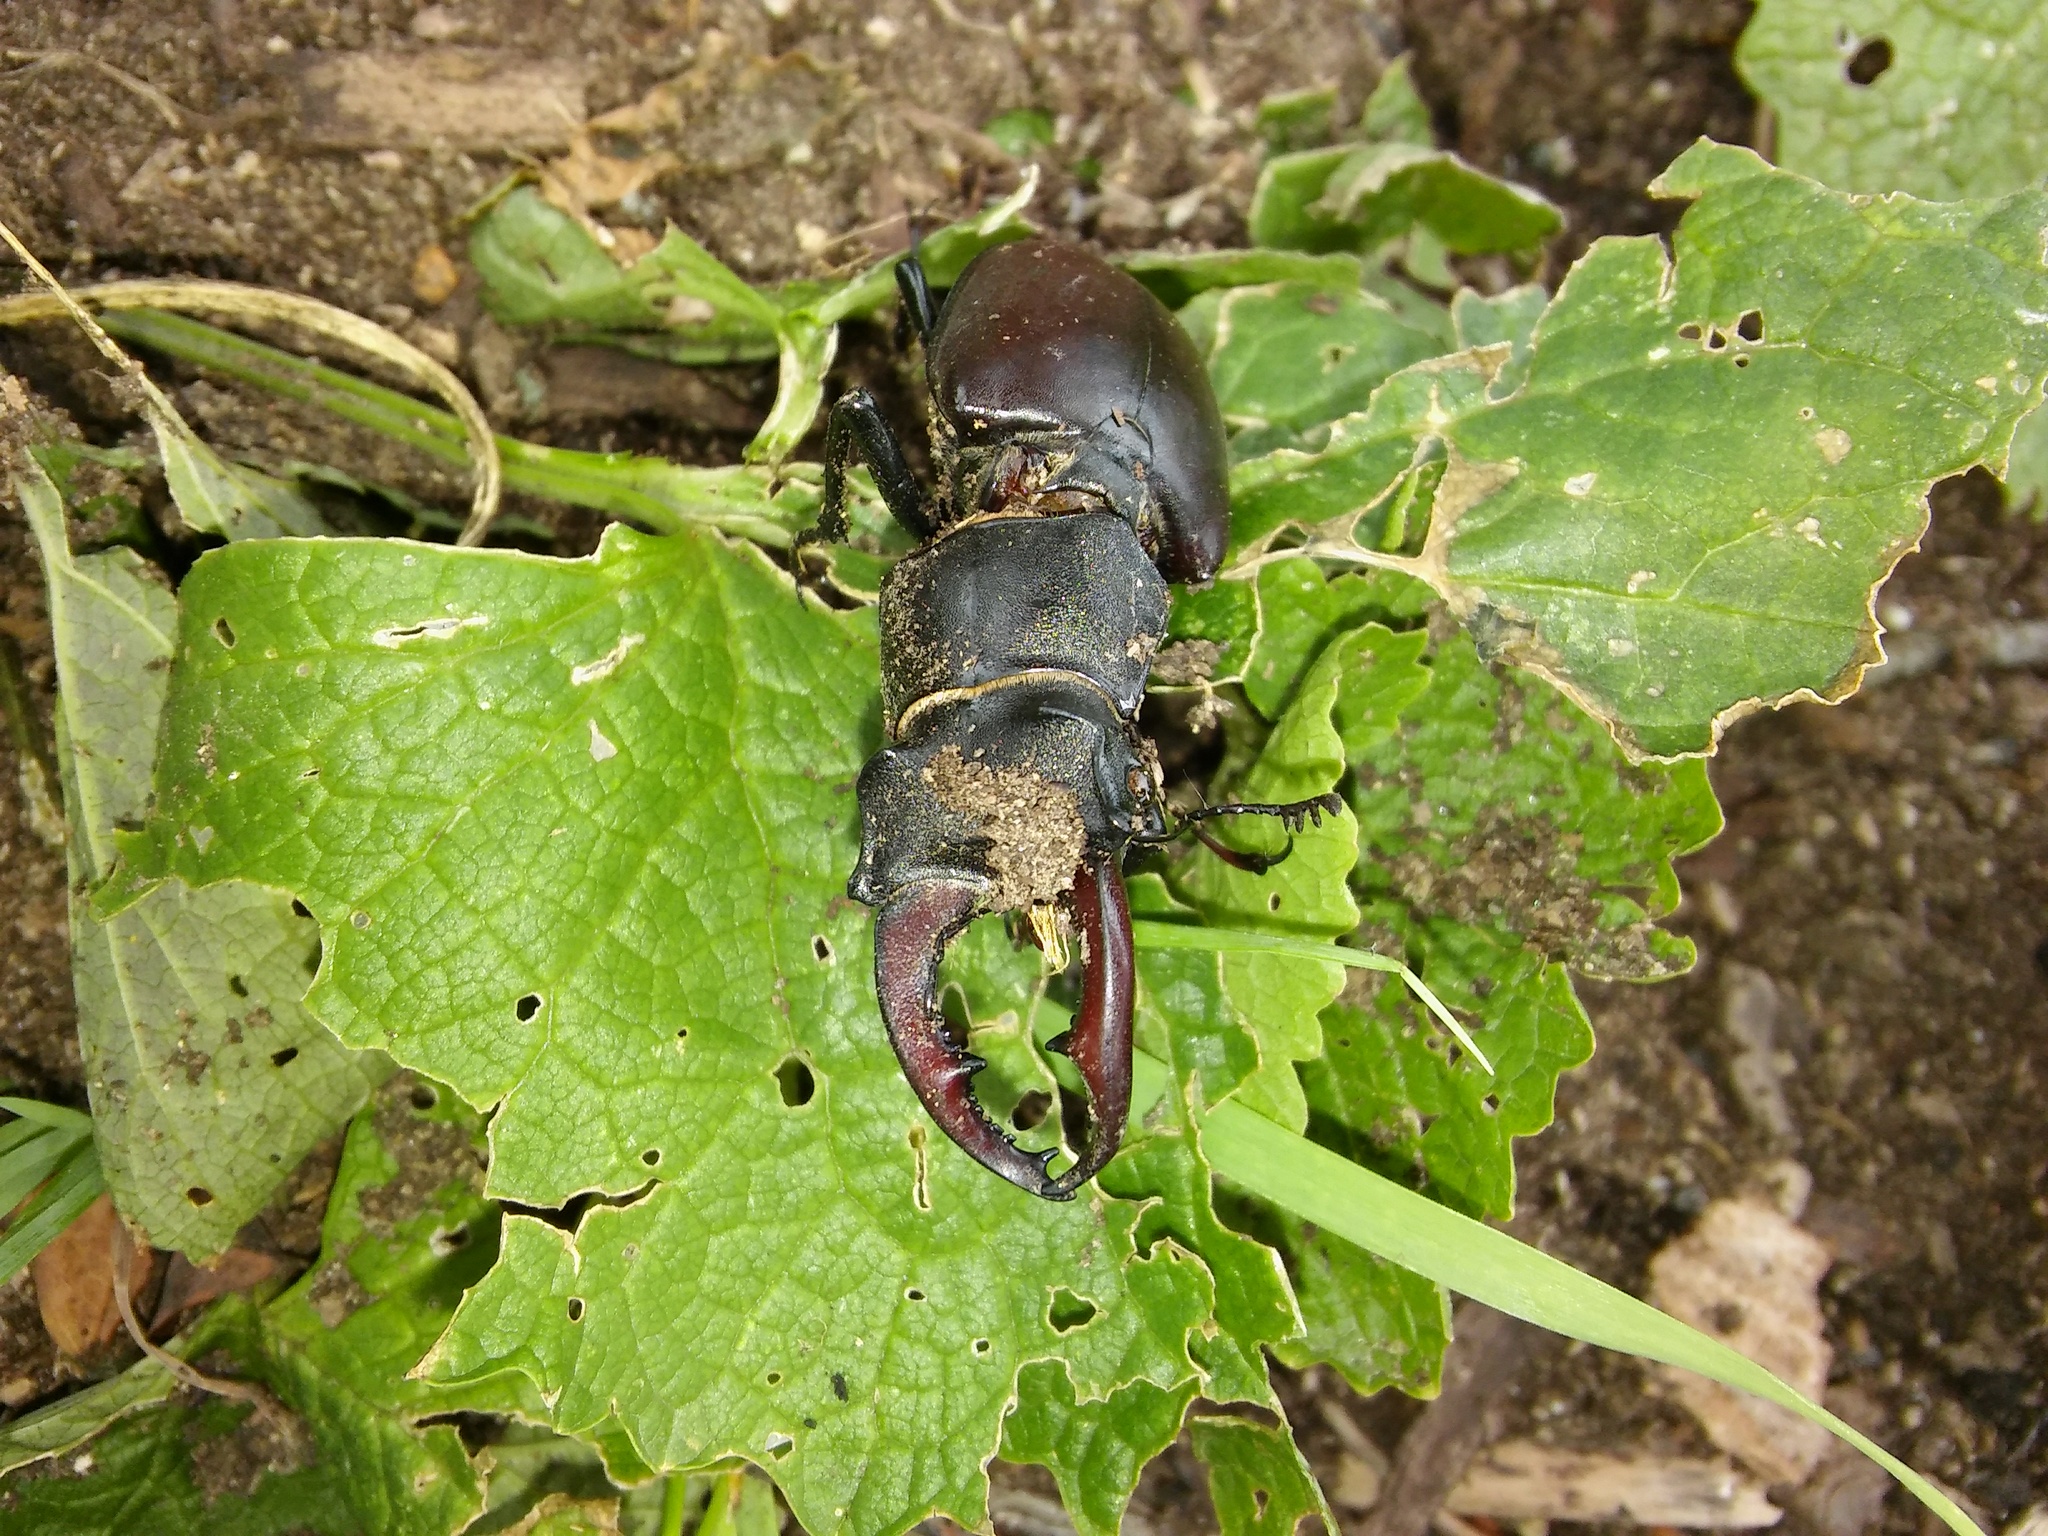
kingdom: Animalia
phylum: Arthropoda
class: Insecta
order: Coleoptera
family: Lucanidae
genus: Lucanus
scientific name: Lucanus cervus
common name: Stag beetle
